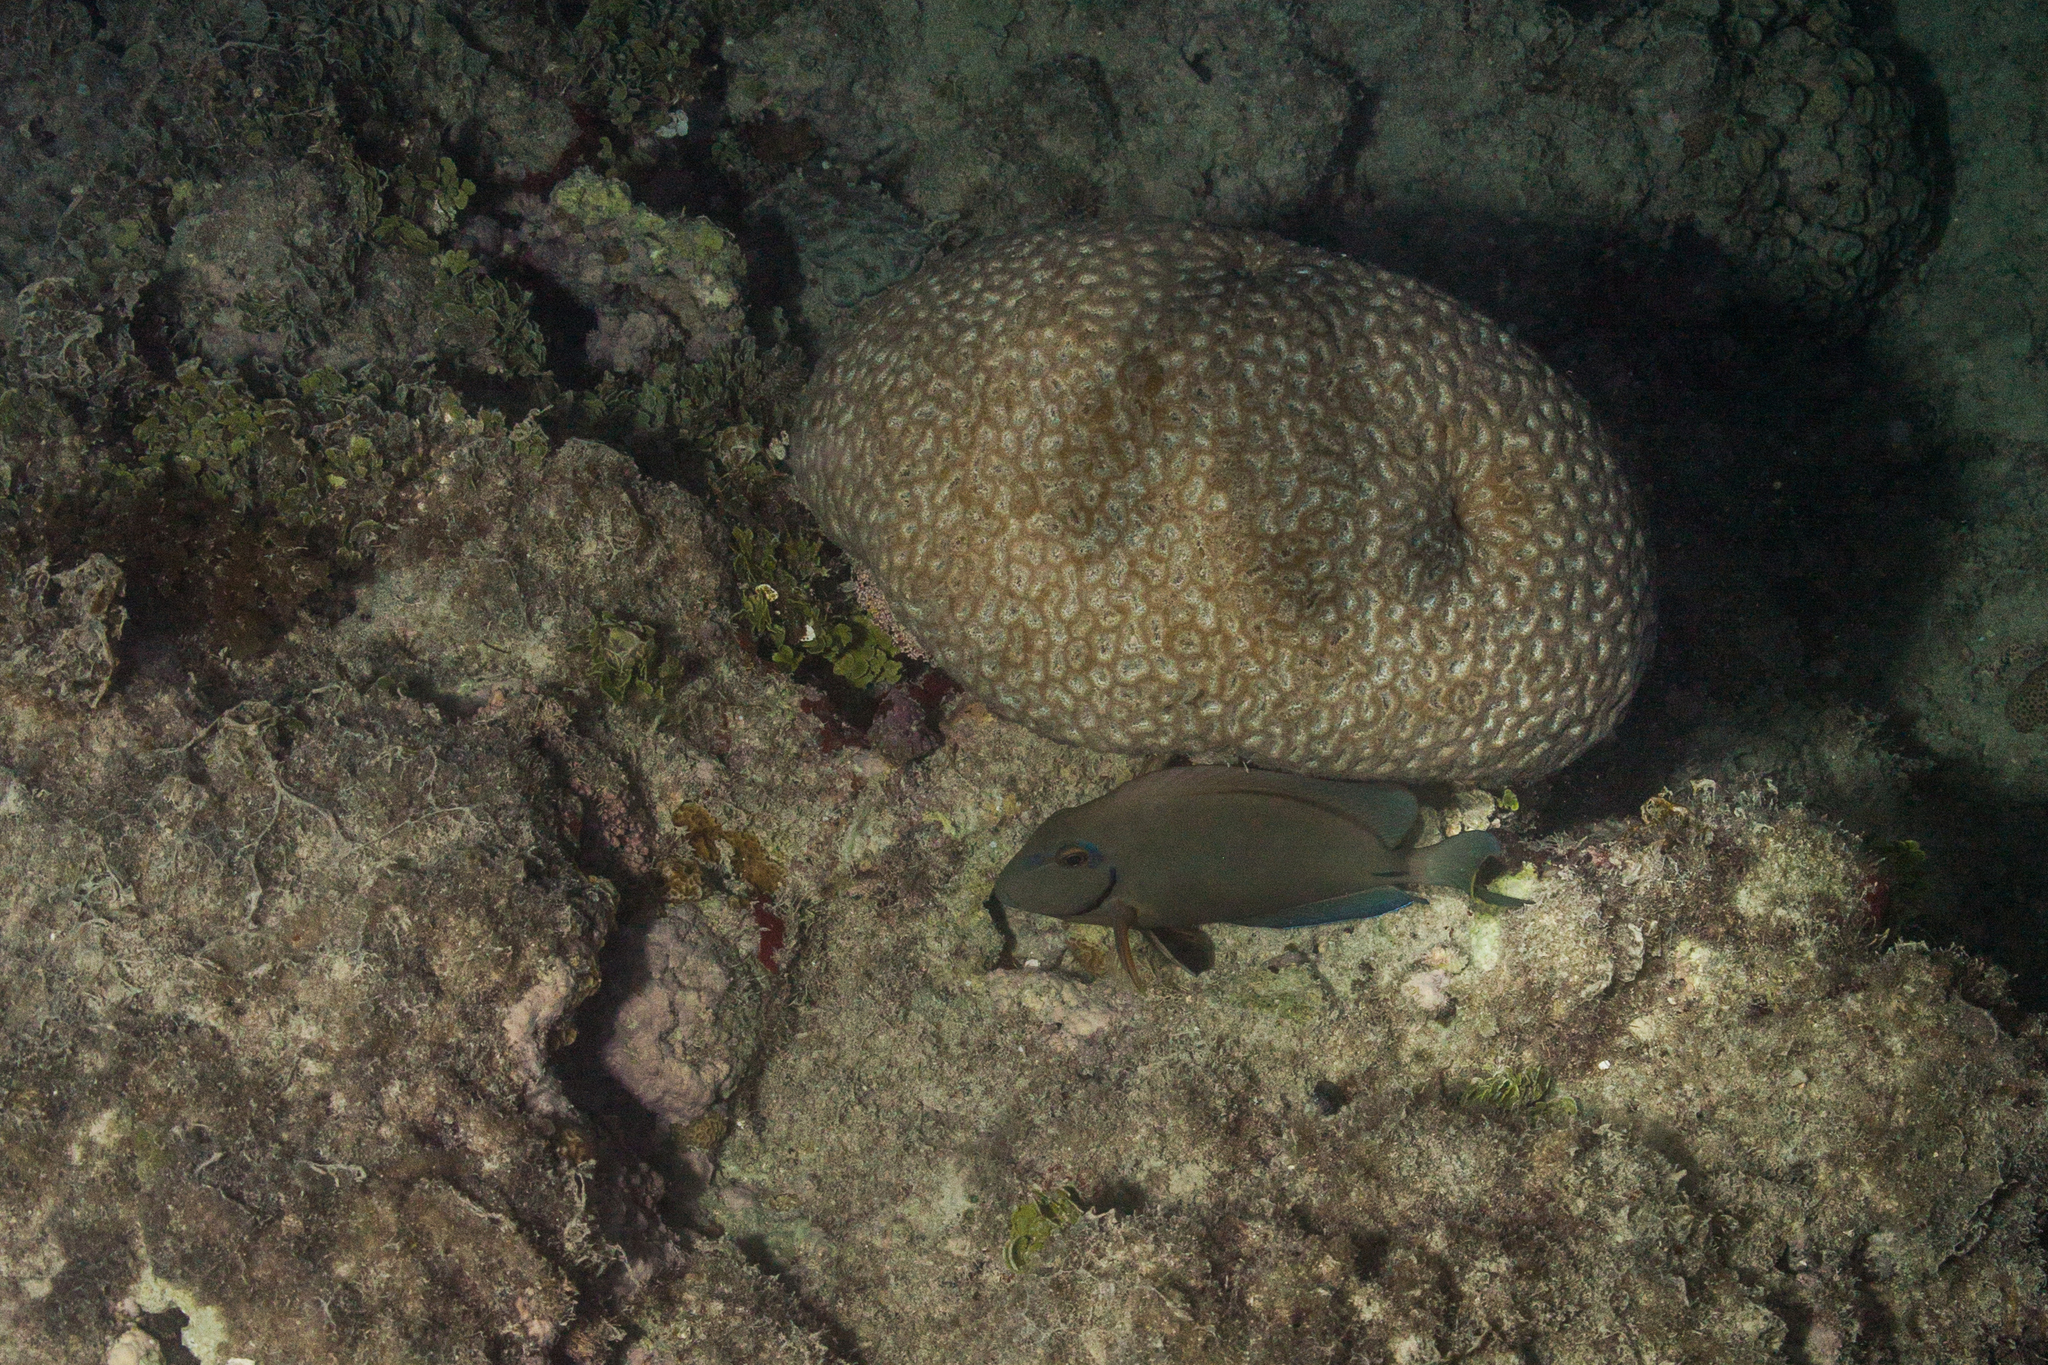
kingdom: Animalia
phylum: Chordata
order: Perciformes
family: Acanthuridae
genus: Acanthurus
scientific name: Acanthurus bahianus
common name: Ocean surgeon
